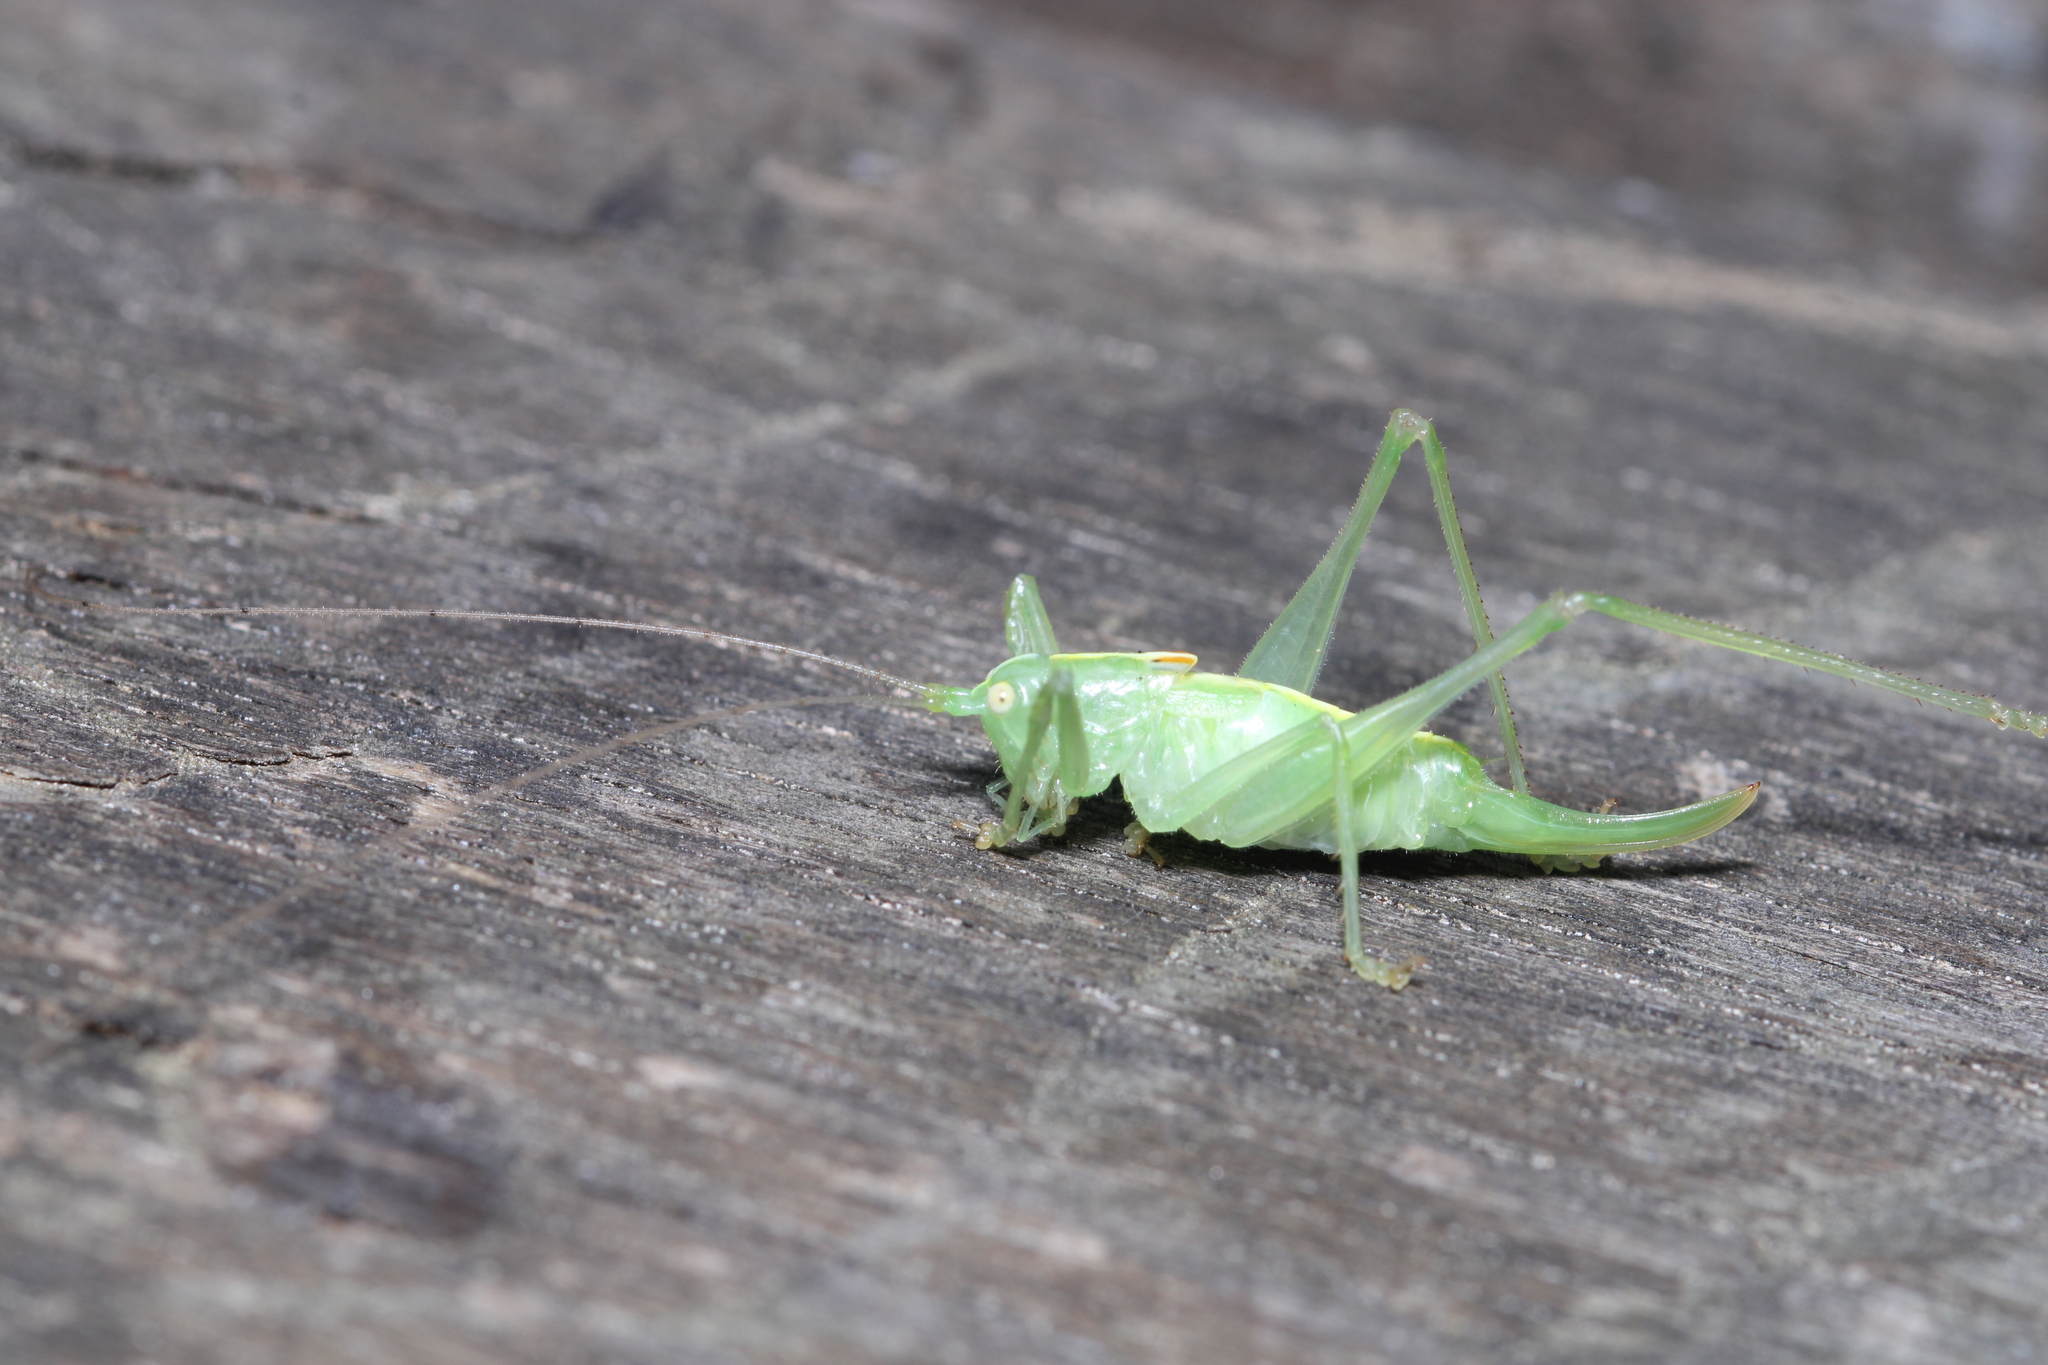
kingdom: Animalia
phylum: Arthropoda
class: Insecta
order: Orthoptera
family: Tettigoniidae
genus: Meconema
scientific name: Meconema meridionale
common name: Southern oak bush-cricket
